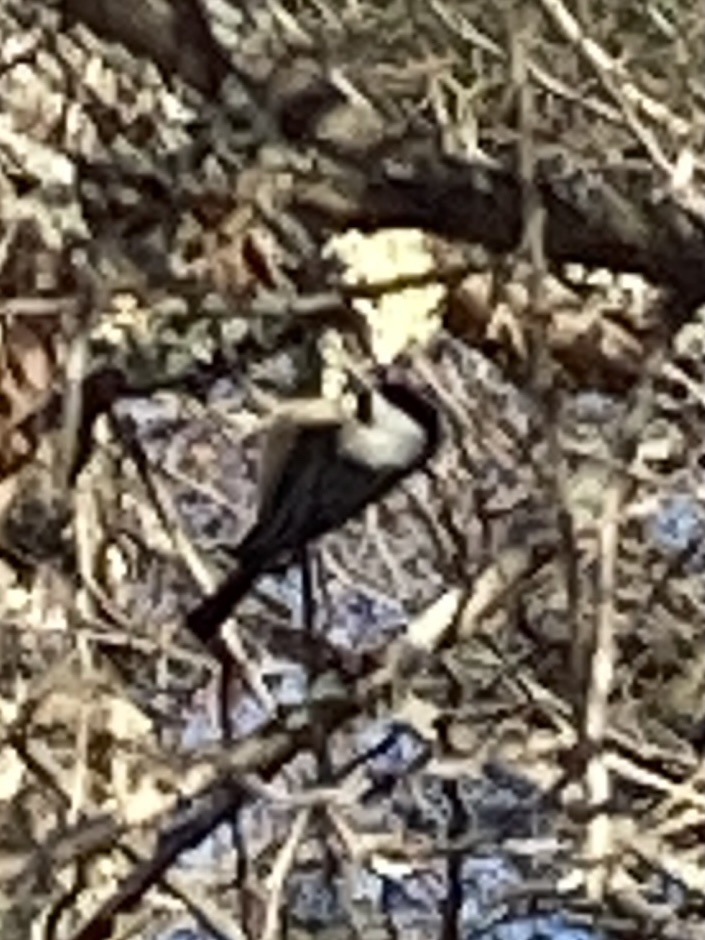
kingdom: Animalia
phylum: Chordata
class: Aves
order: Passeriformes
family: Paridae
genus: Poecile
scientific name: Poecile atricapillus
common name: Black-capped chickadee
